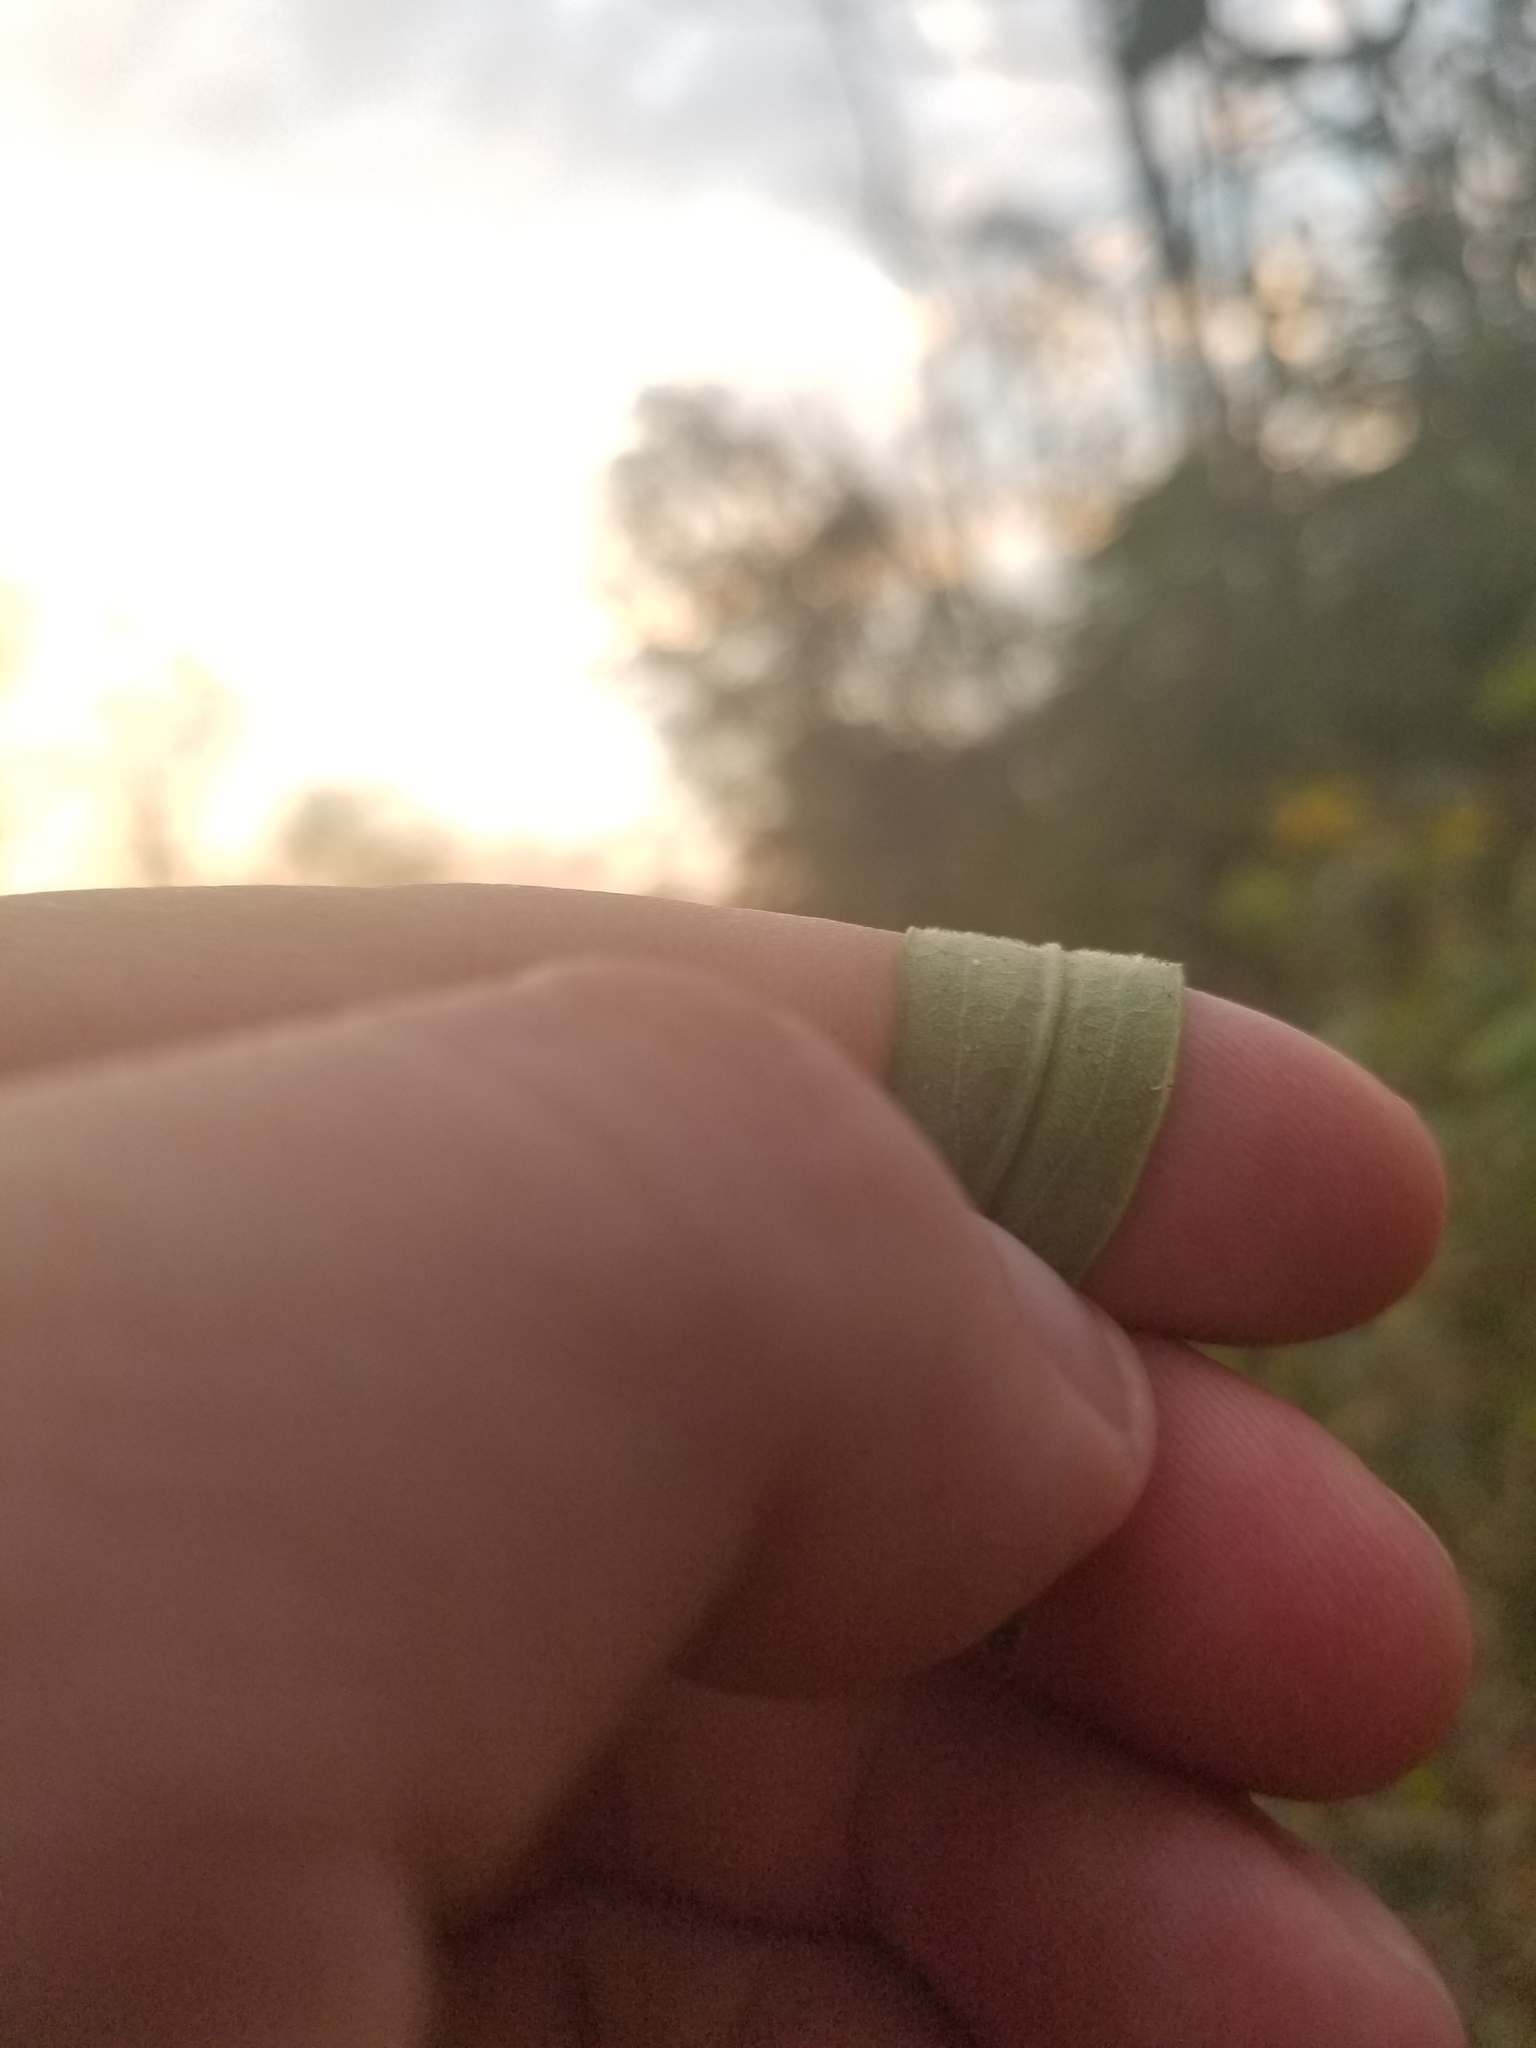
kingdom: Plantae
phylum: Tracheophyta
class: Magnoliopsida
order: Asterales
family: Asteraceae
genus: Solidago
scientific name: Solidago altissima
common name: Late goldenrod
